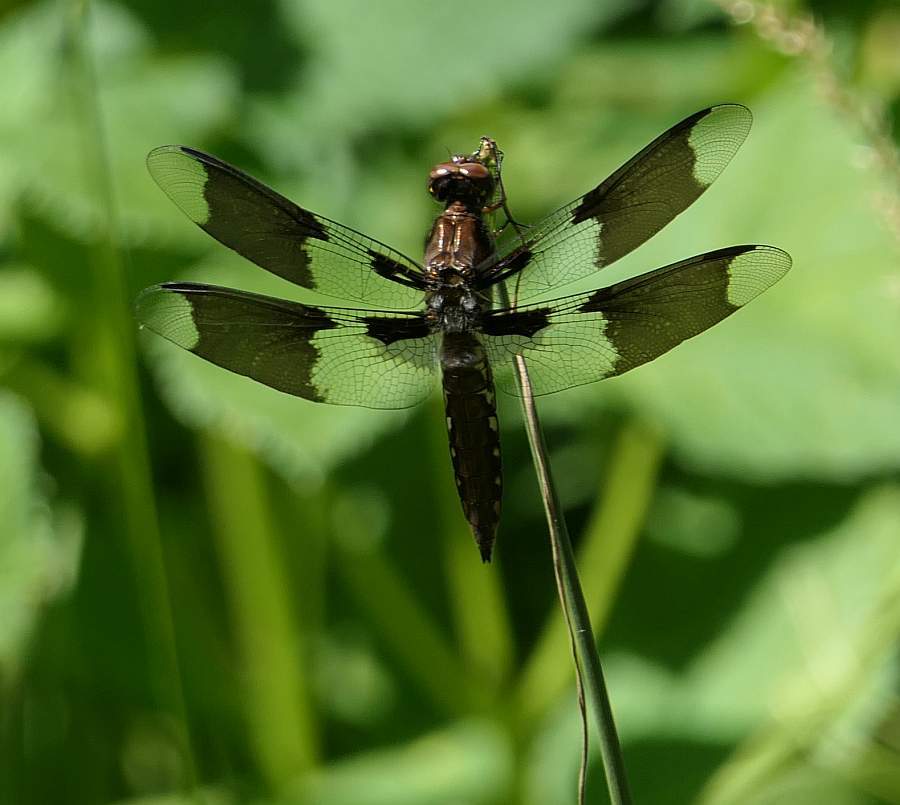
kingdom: Animalia
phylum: Arthropoda
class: Insecta
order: Odonata
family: Libellulidae
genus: Plathemis
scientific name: Plathemis lydia
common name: Common whitetail
